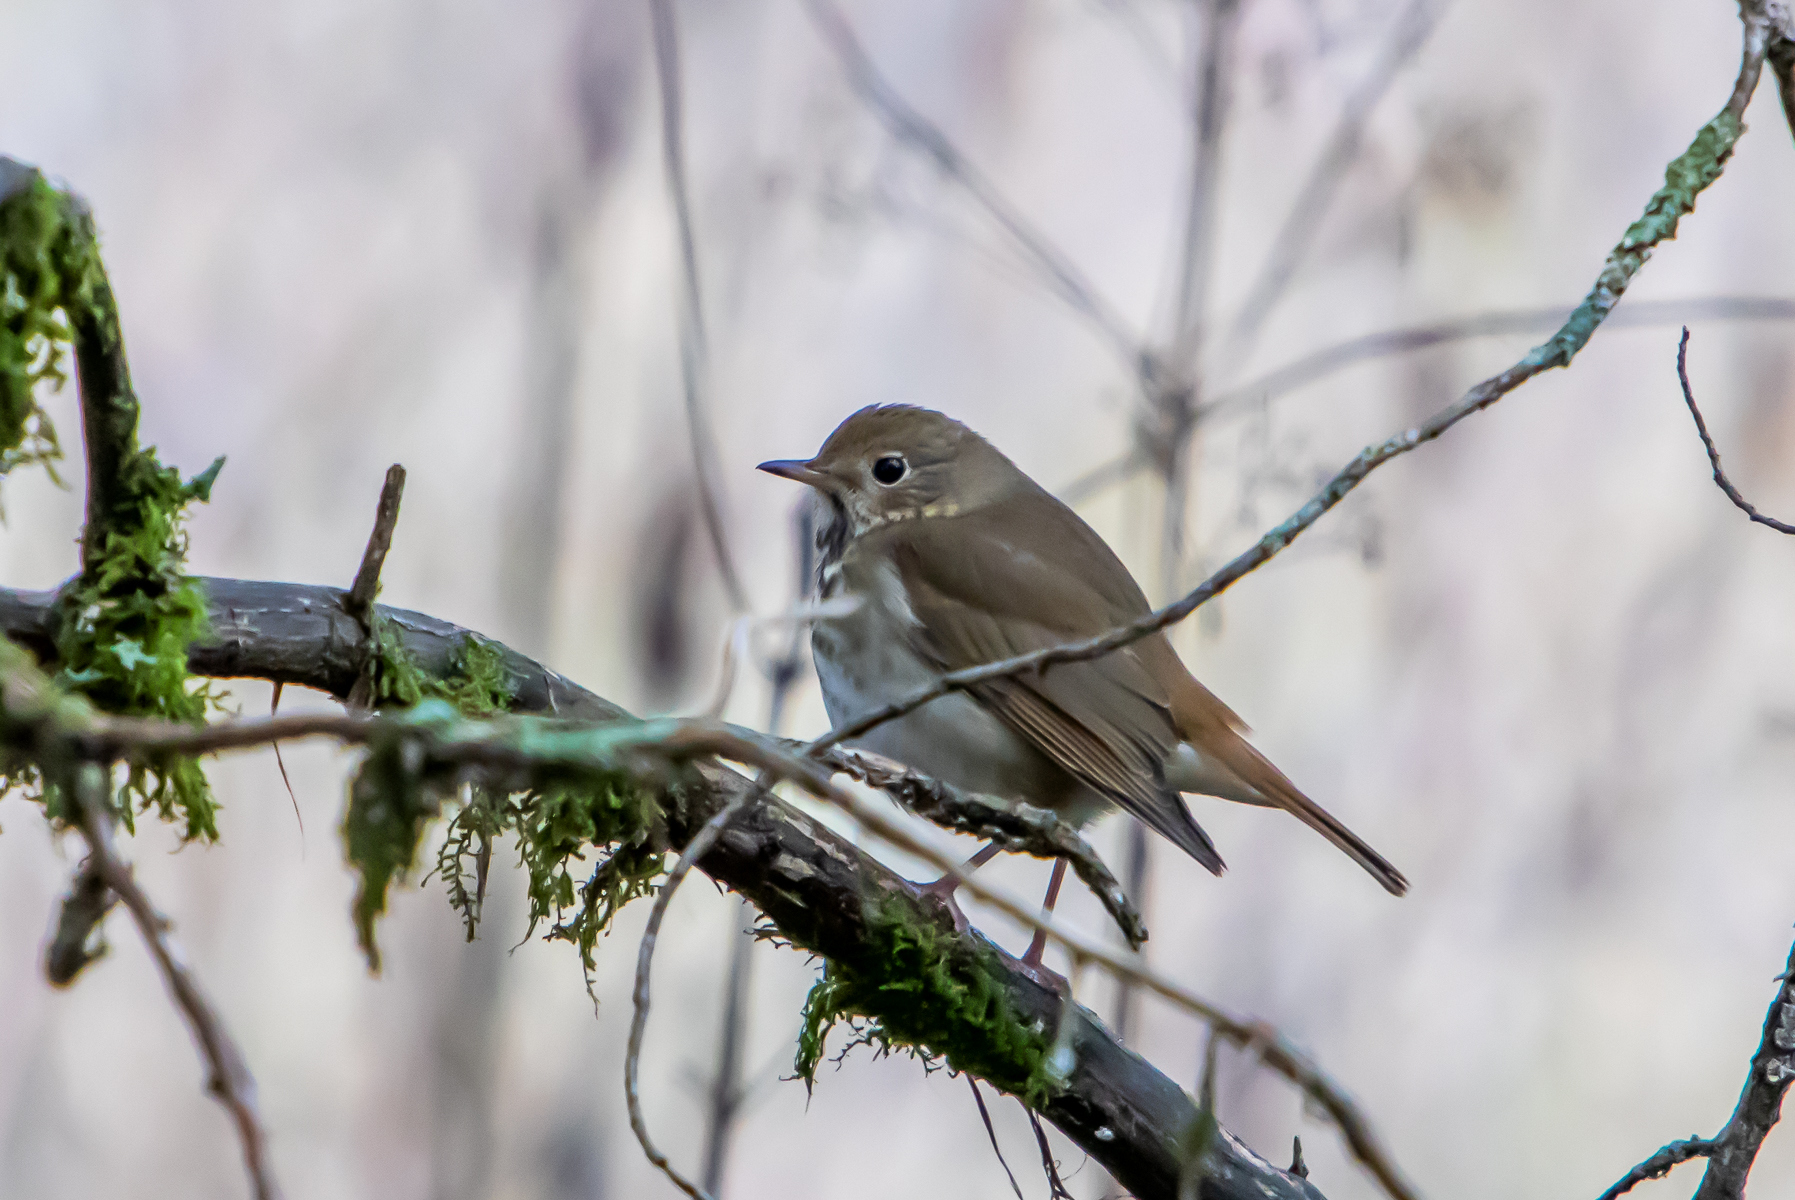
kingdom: Animalia
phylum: Chordata
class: Aves
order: Passeriformes
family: Turdidae
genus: Catharus
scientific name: Catharus guttatus
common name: Hermit thrush
